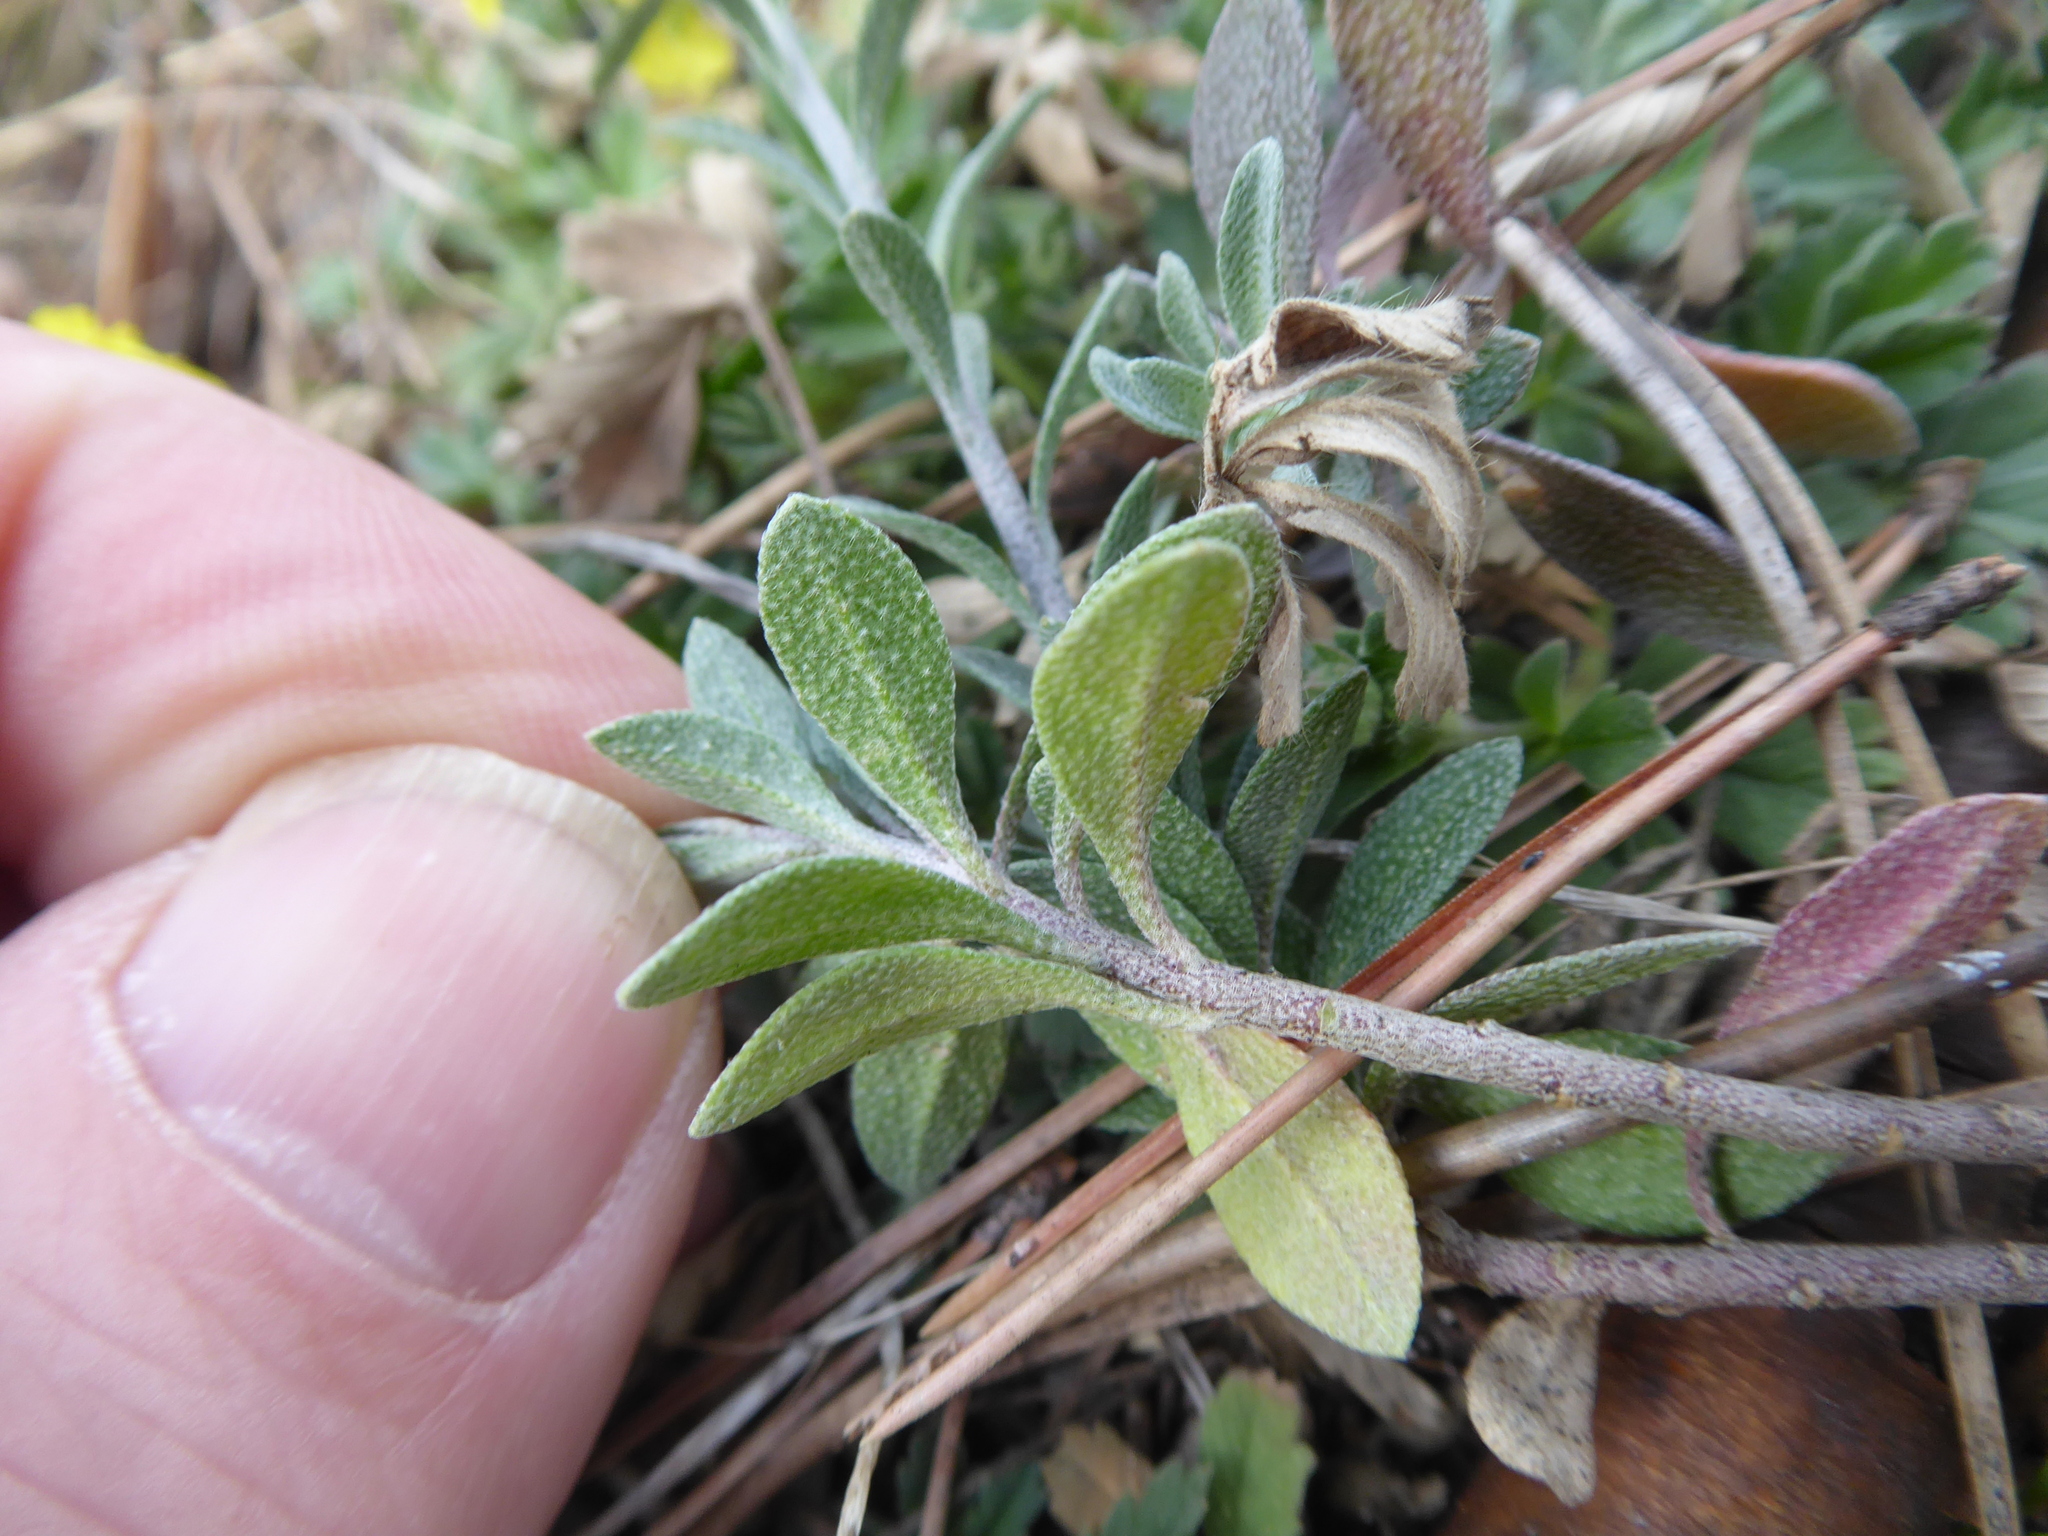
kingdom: Plantae
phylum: Tracheophyta
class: Magnoliopsida
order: Brassicales
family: Brassicaceae
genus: Alyssum
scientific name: Alyssum gmelinii
